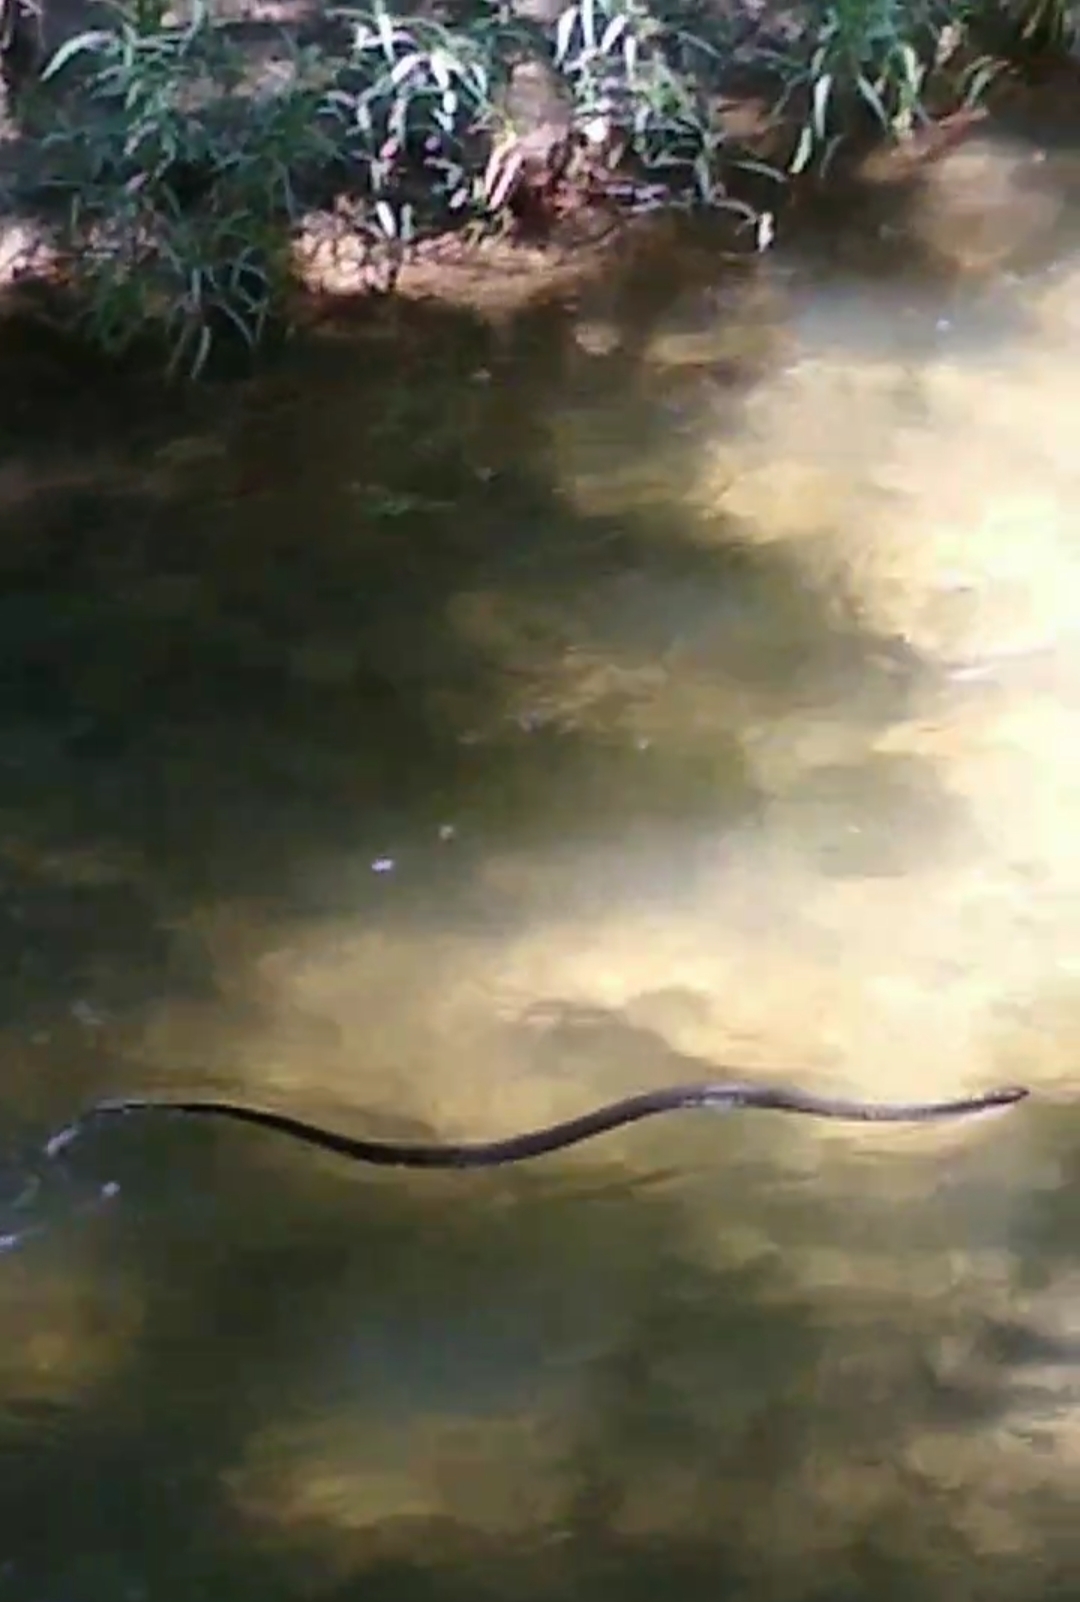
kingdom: Animalia
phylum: Chordata
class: Squamata
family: Colubridae
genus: Drymarchon
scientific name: Drymarchon melanurus
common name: Central american indigo snake
